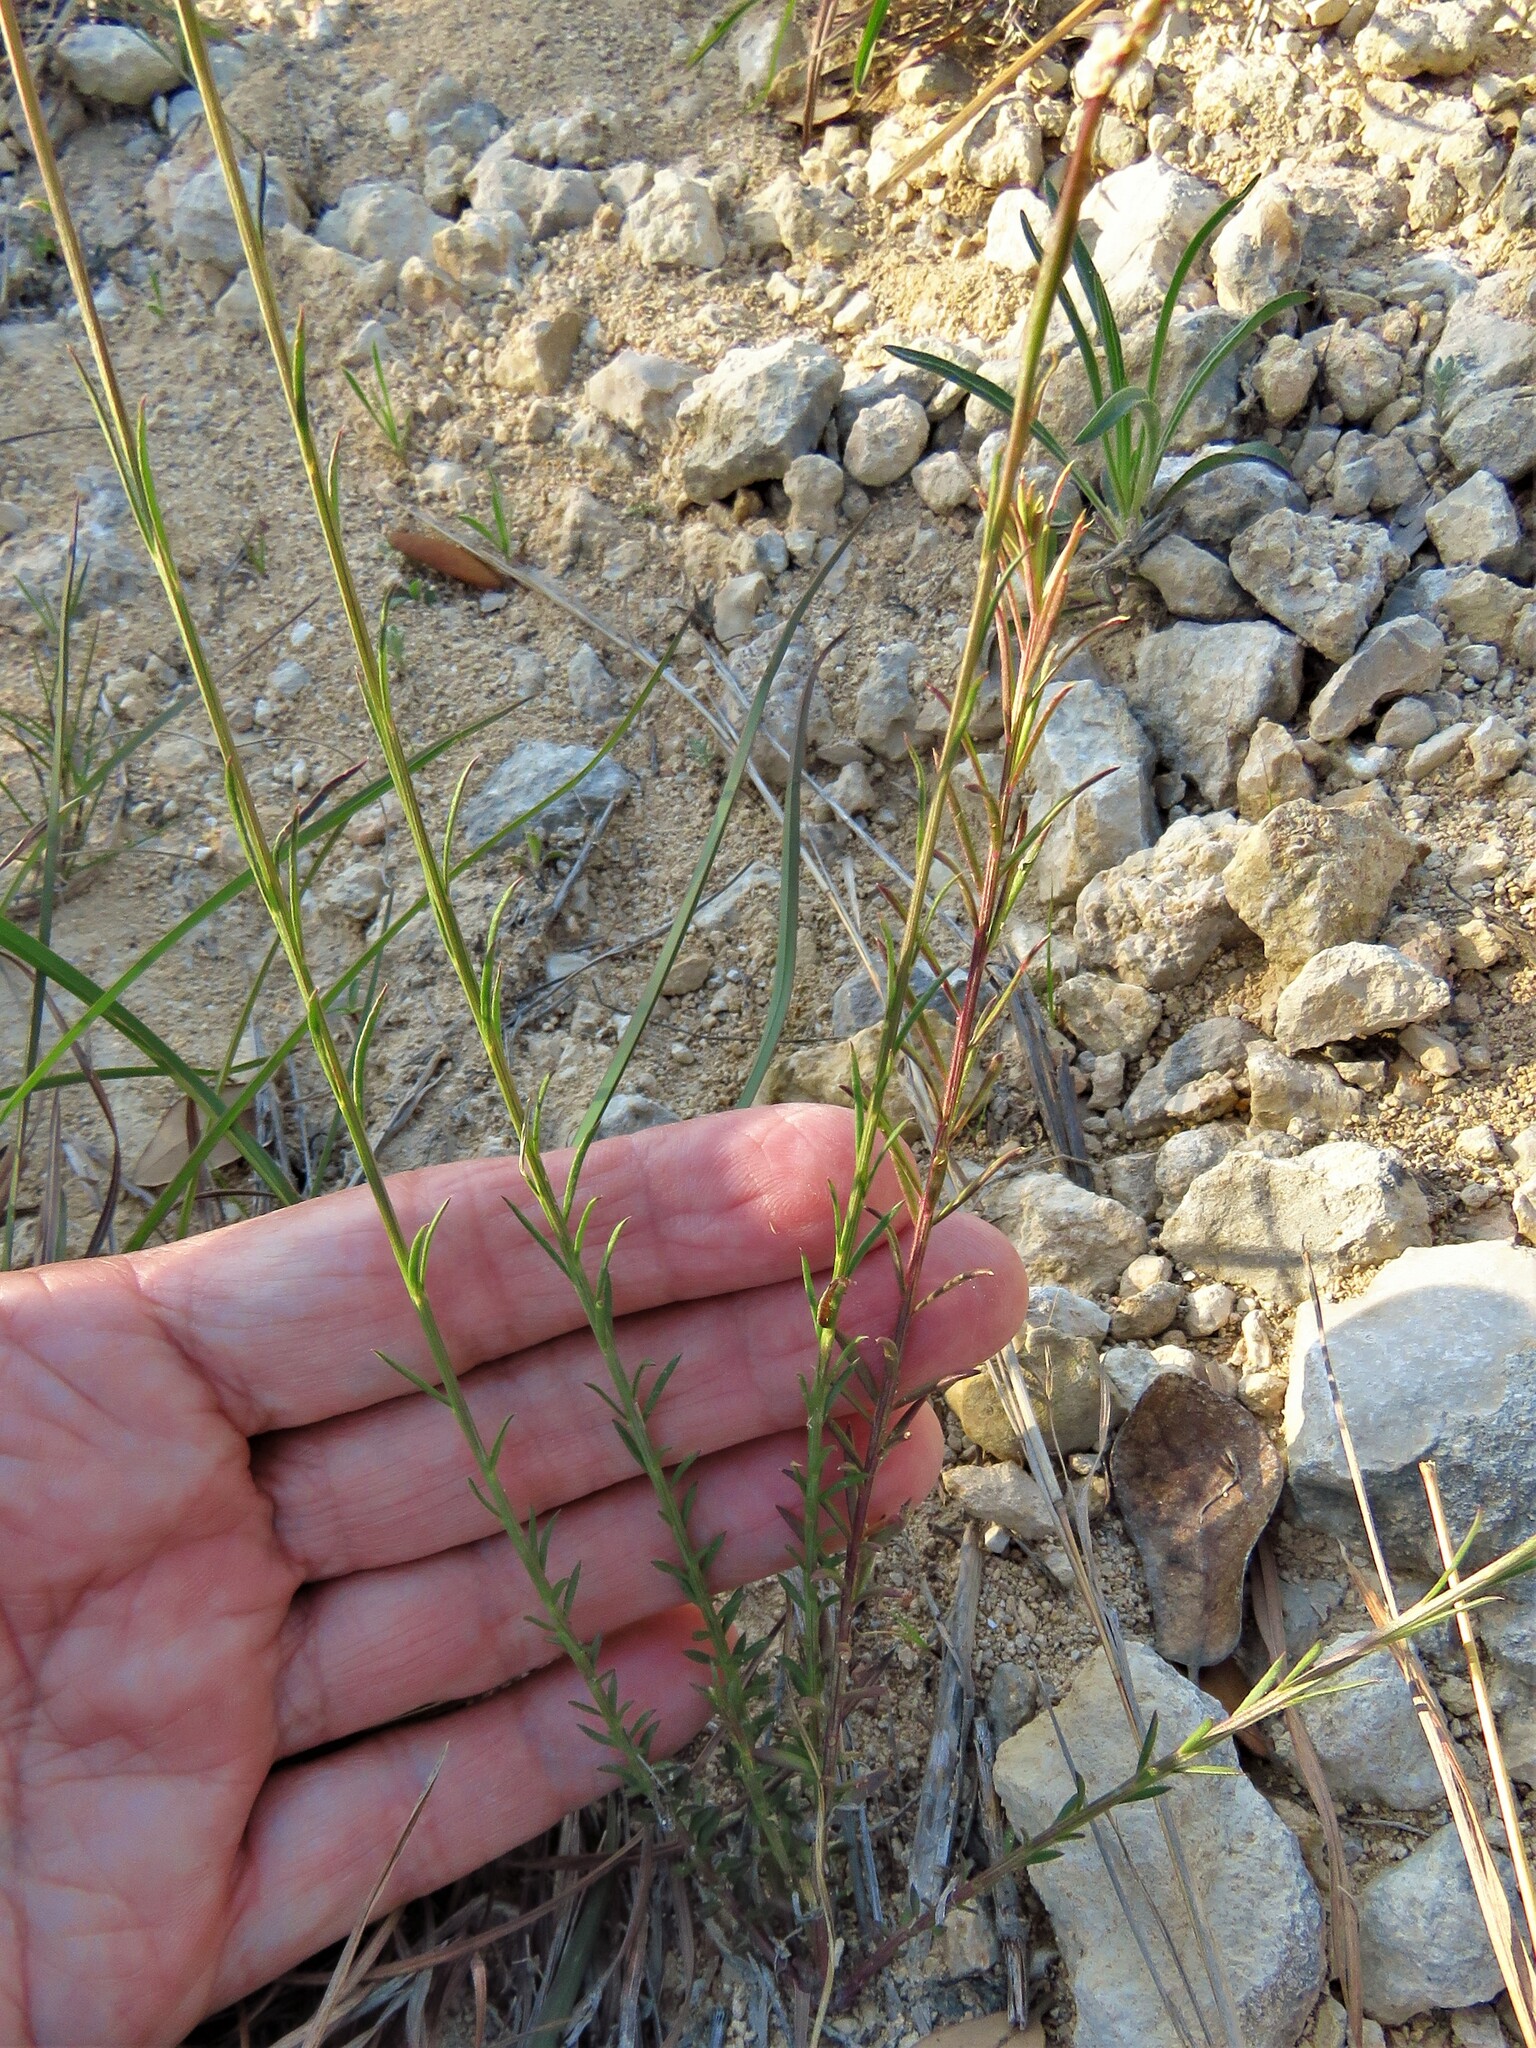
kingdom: Plantae
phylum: Tracheophyta
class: Magnoliopsida
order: Fabales
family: Polygalaceae
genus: Polygala
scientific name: Polygala alba
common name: White milkwort
